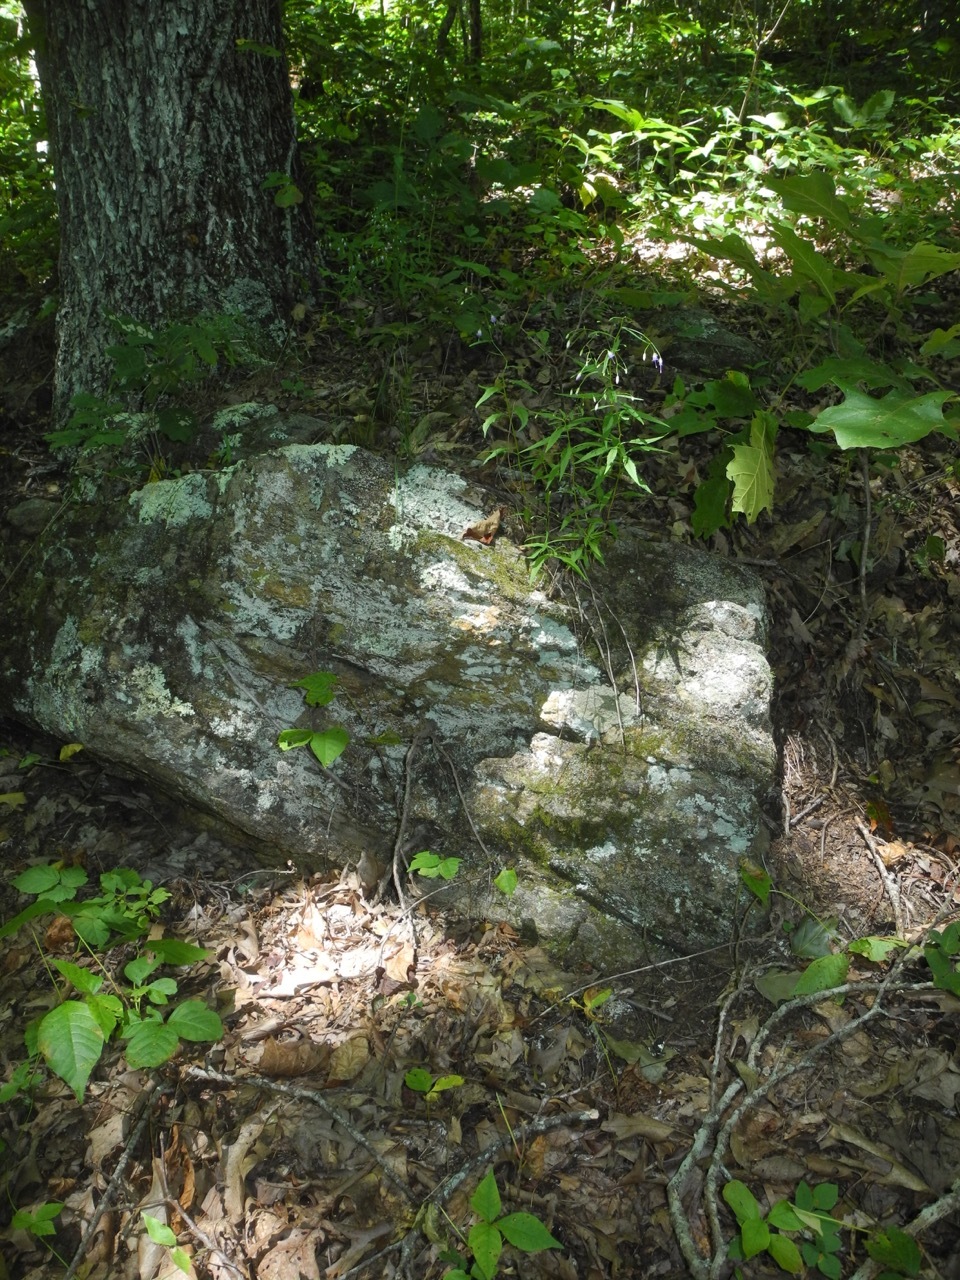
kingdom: Plantae
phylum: Tracheophyta
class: Magnoliopsida
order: Asterales
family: Campanulaceae
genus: Campanula
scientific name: Campanula divaricata
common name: Appalachian bellflower
